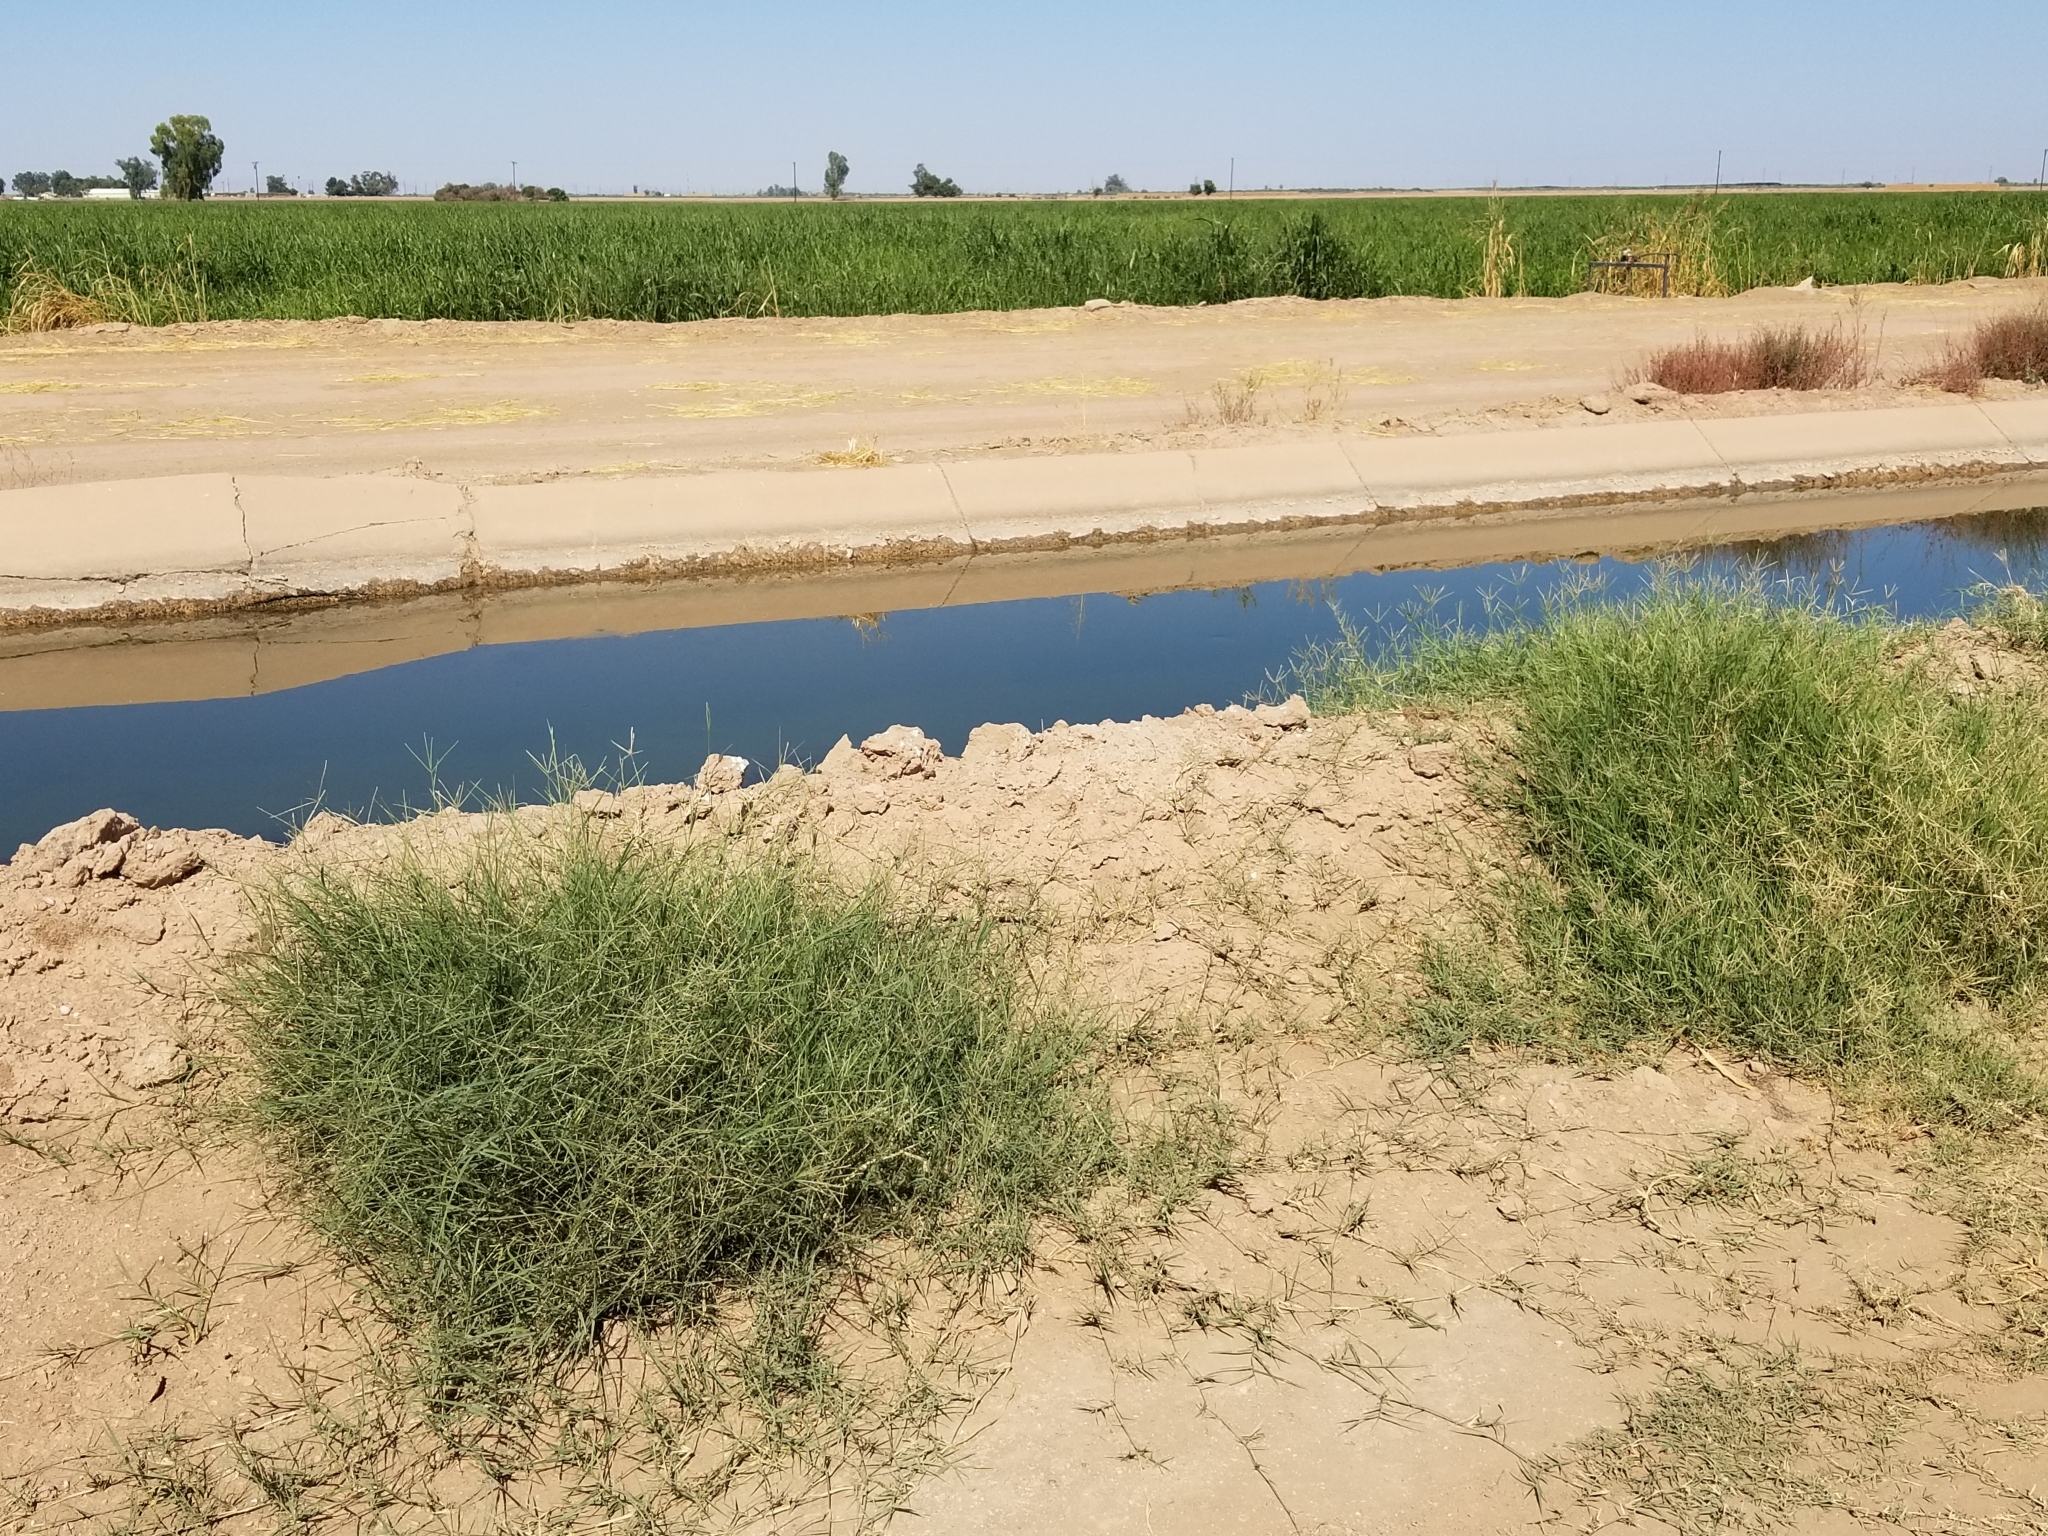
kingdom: Plantae
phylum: Tracheophyta
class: Liliopsida
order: Poales
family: Poaceae
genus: Cynodon
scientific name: Cynodon dactylon
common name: Bermuda grass
